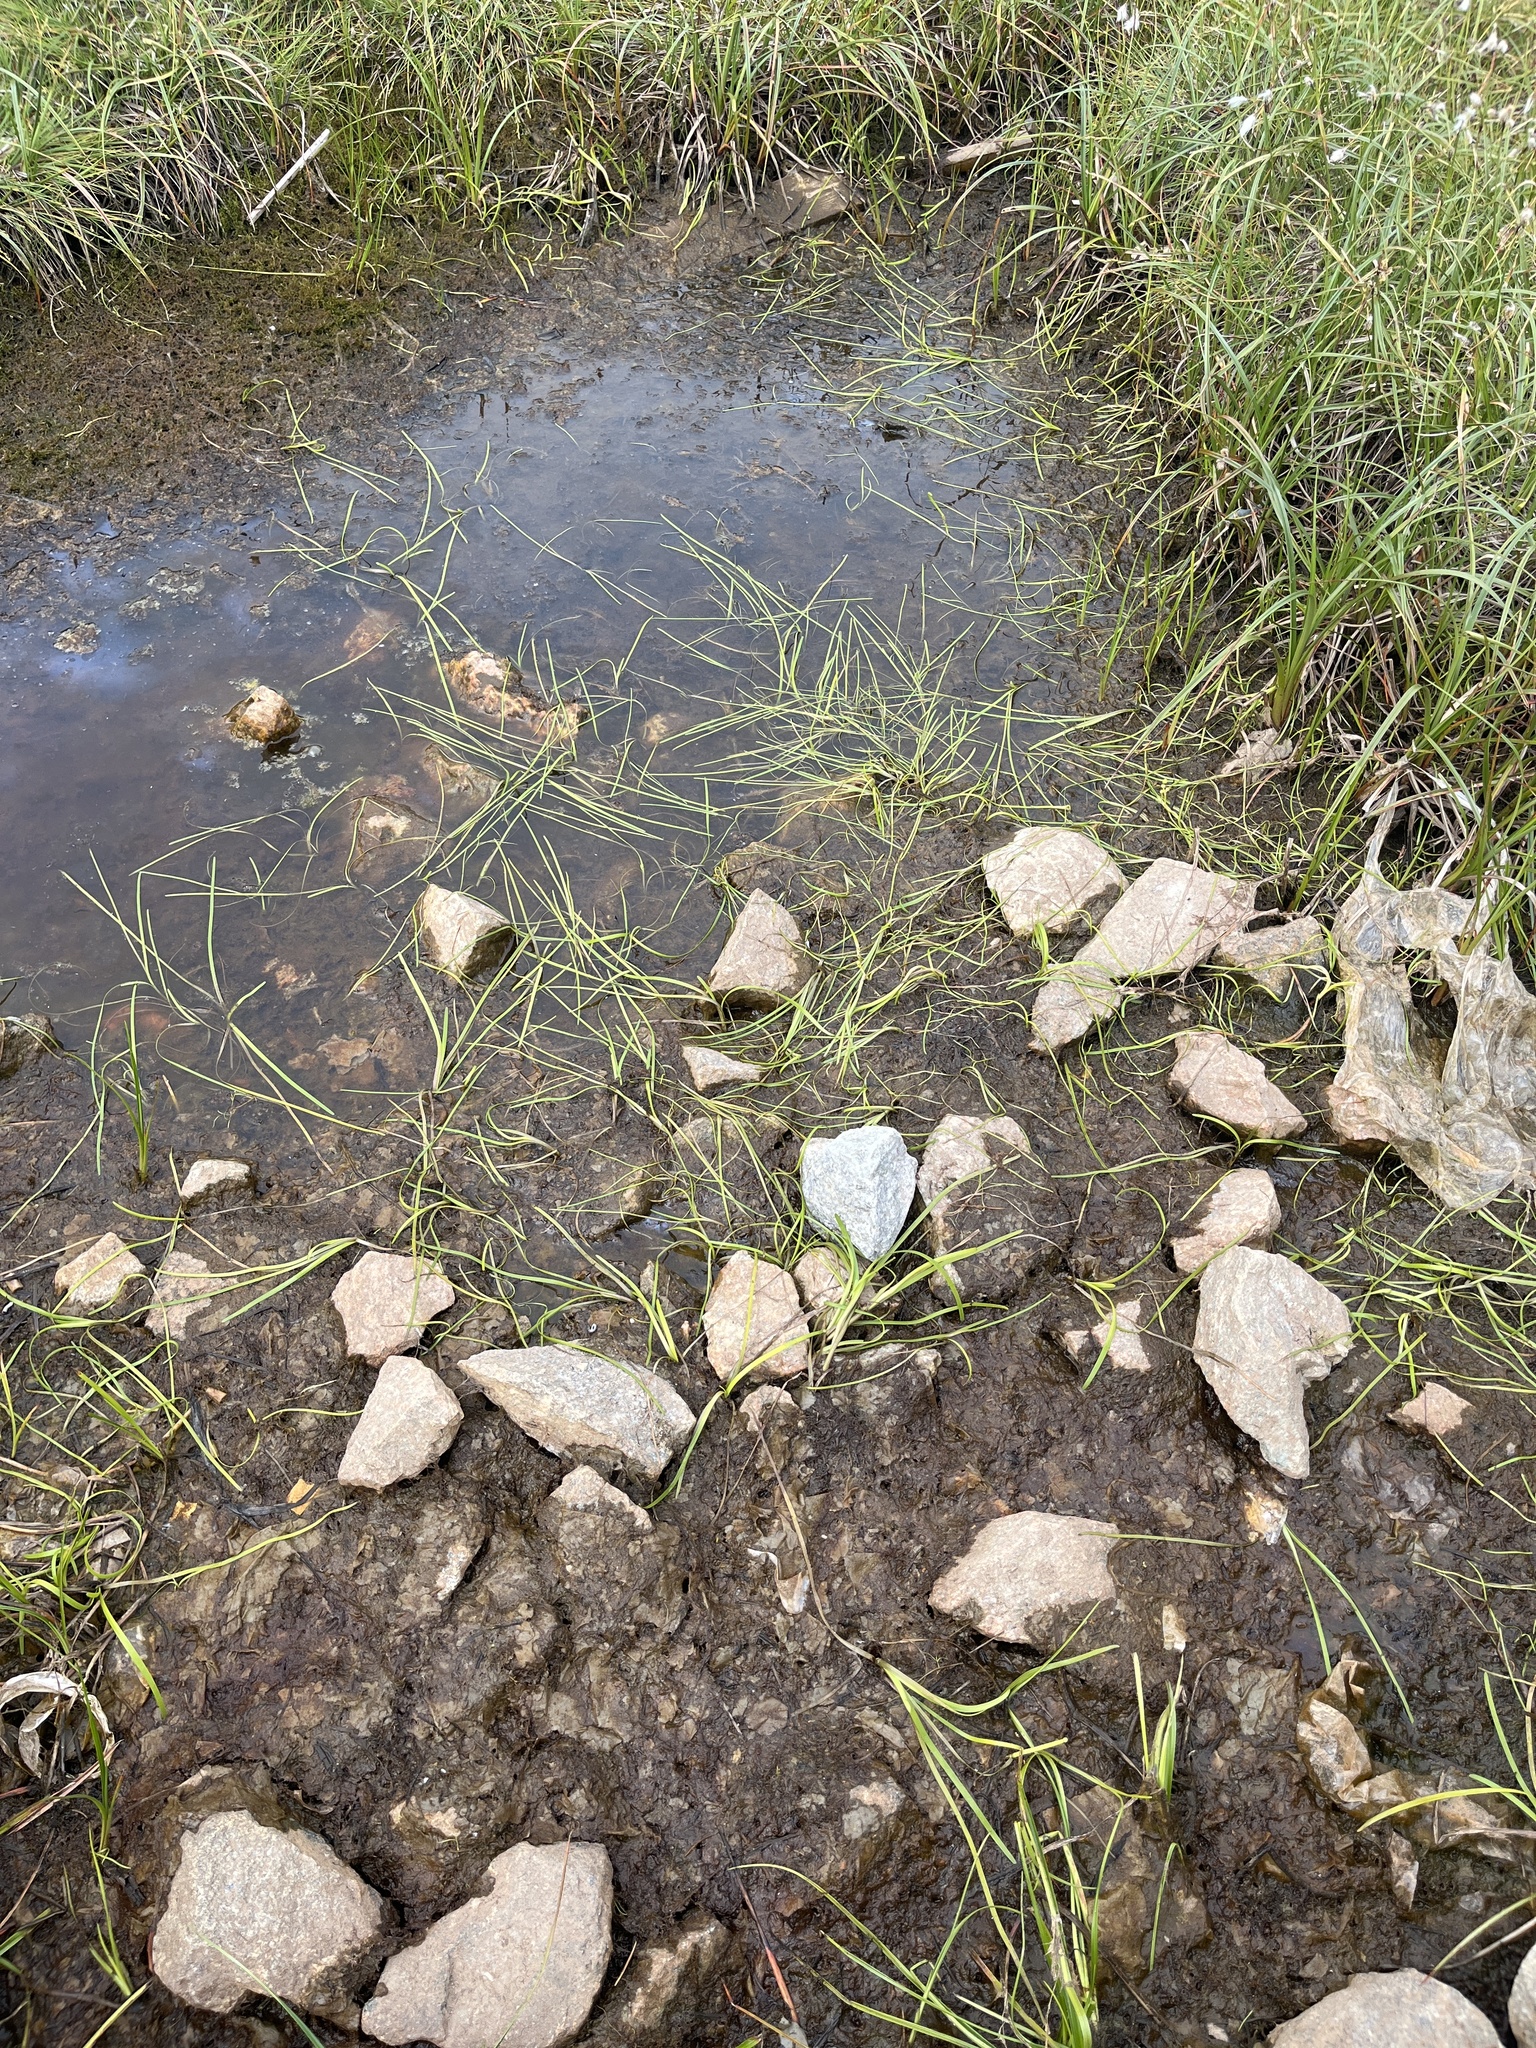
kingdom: Plantae
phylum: Tracheophyta
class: Liliopsida
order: Poales
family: Typhaceae
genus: Sparganium
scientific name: Sparganium hyperboreum
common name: Arctic burreed
